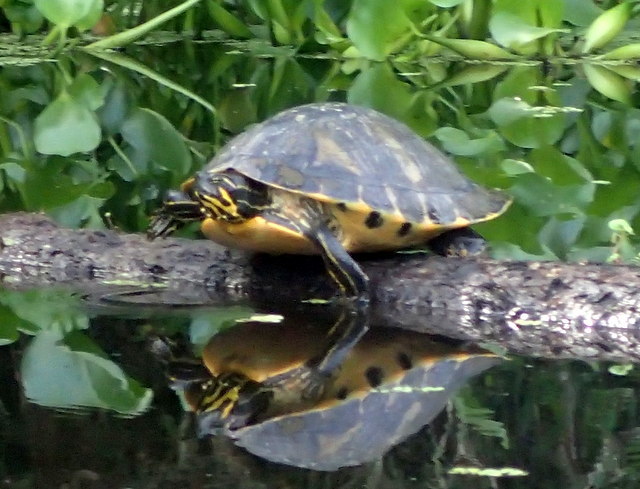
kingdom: Animalia
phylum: Chordata
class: Testudines
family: Emydidae
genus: Pseudemys
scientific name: Pseudemys concinna
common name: Eastern river cooter
